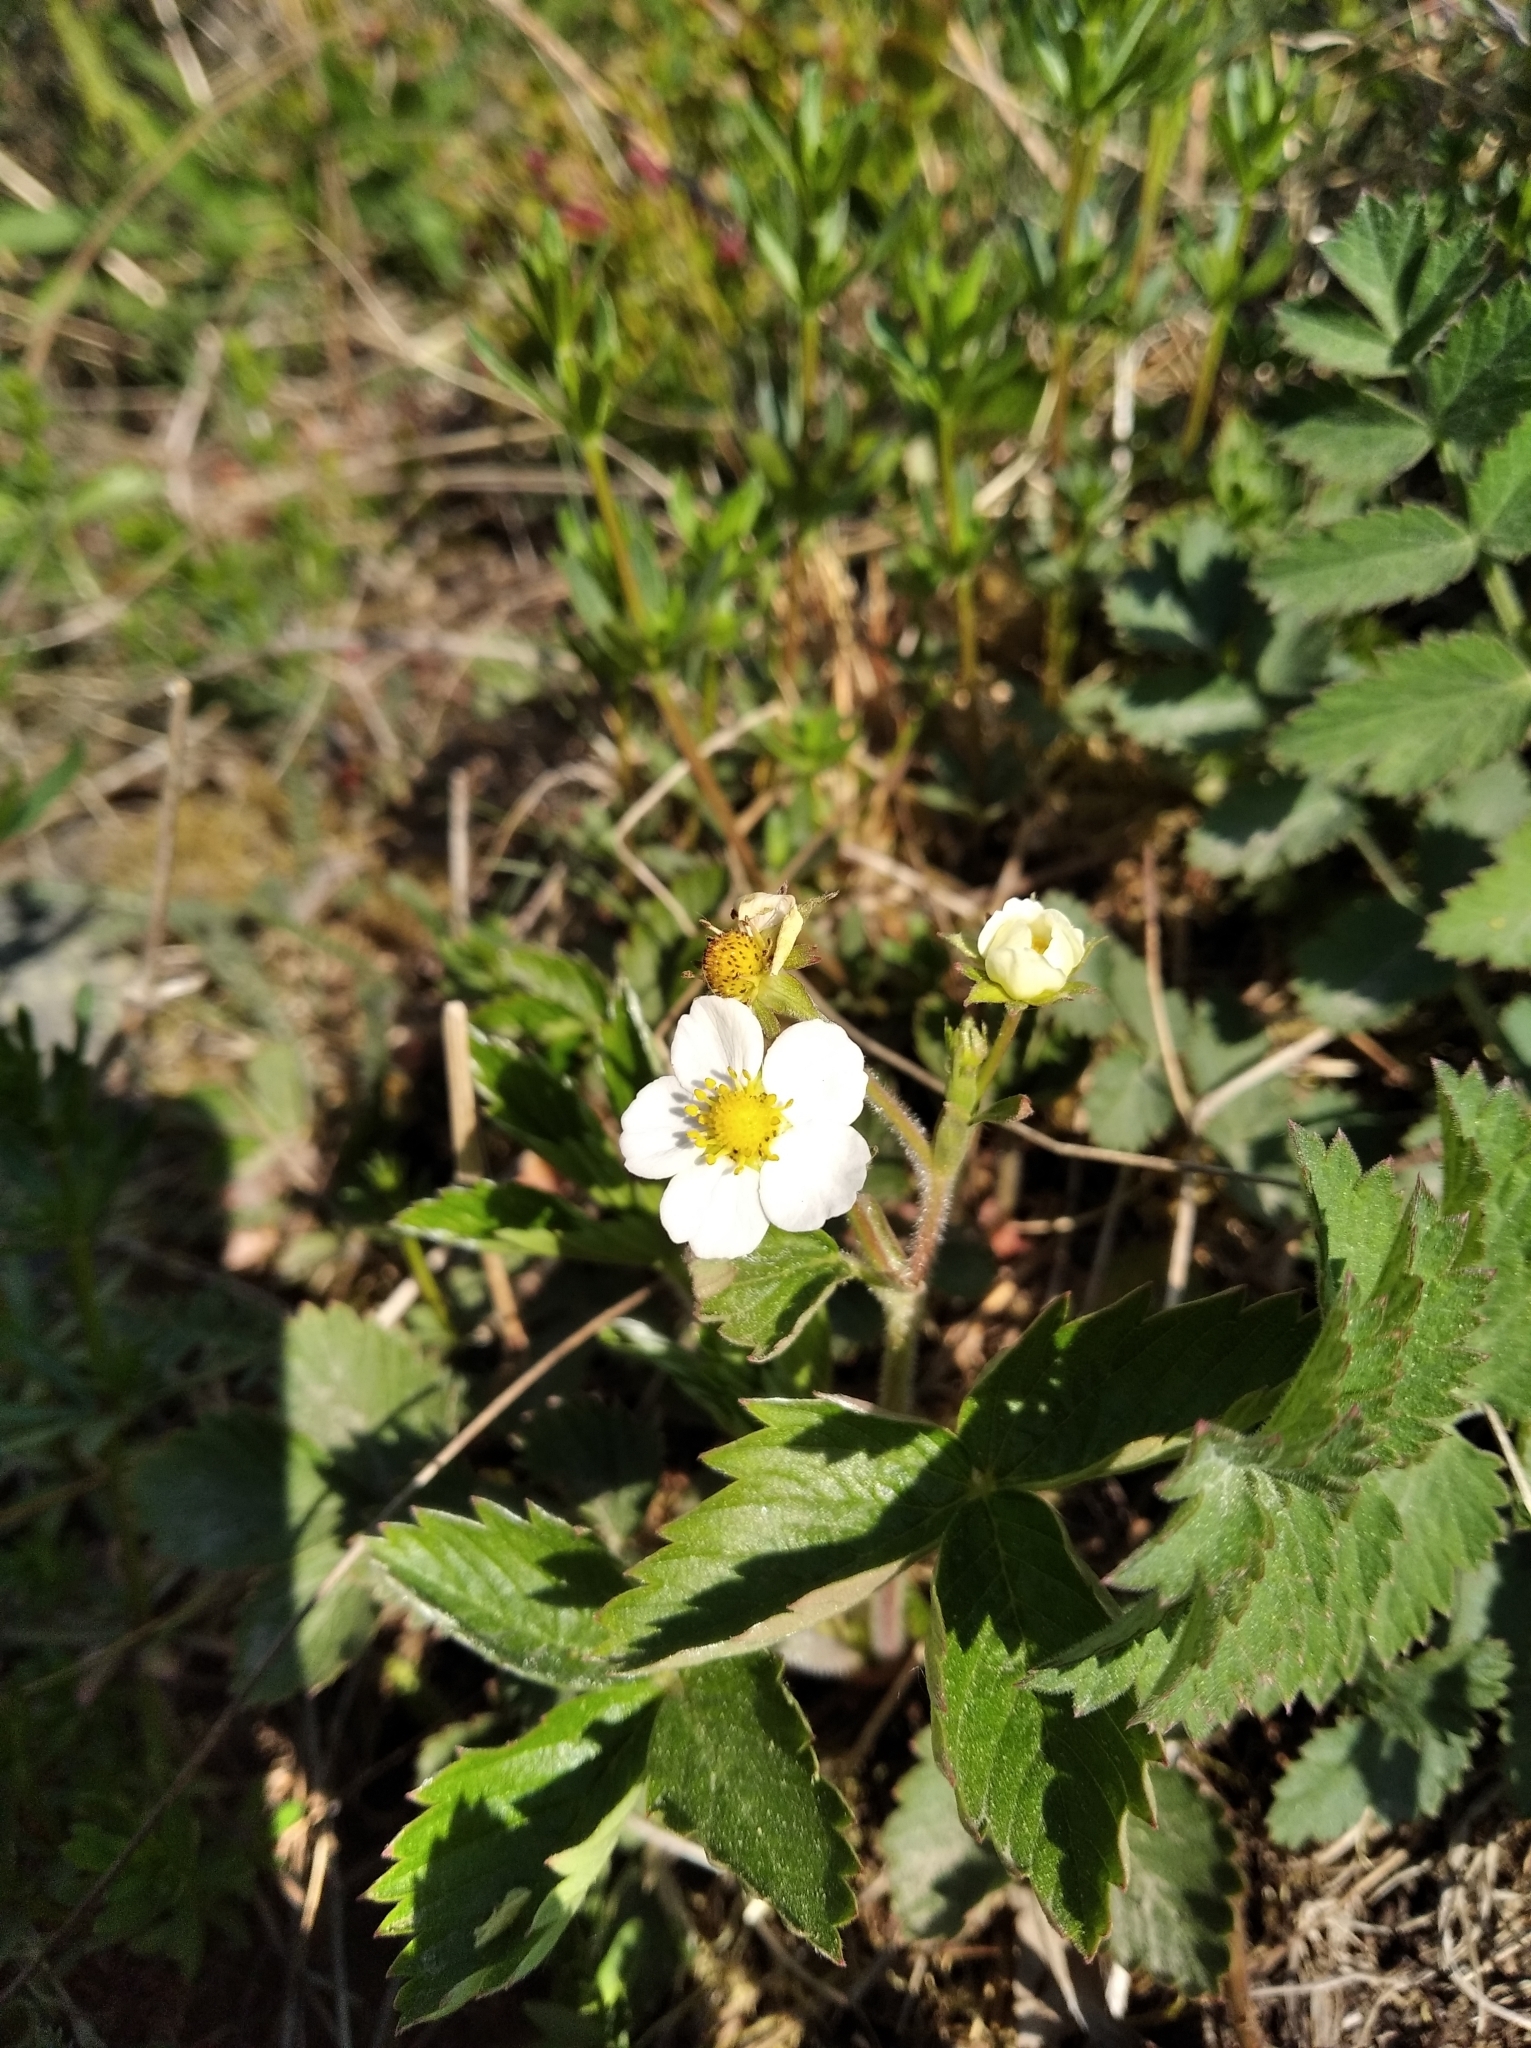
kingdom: Plantae
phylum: Tracheophyta
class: Magnoliopsida
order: Rosales
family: Rosaceae
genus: Fragaria
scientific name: Fragaria vesca
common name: Wild strawberry
